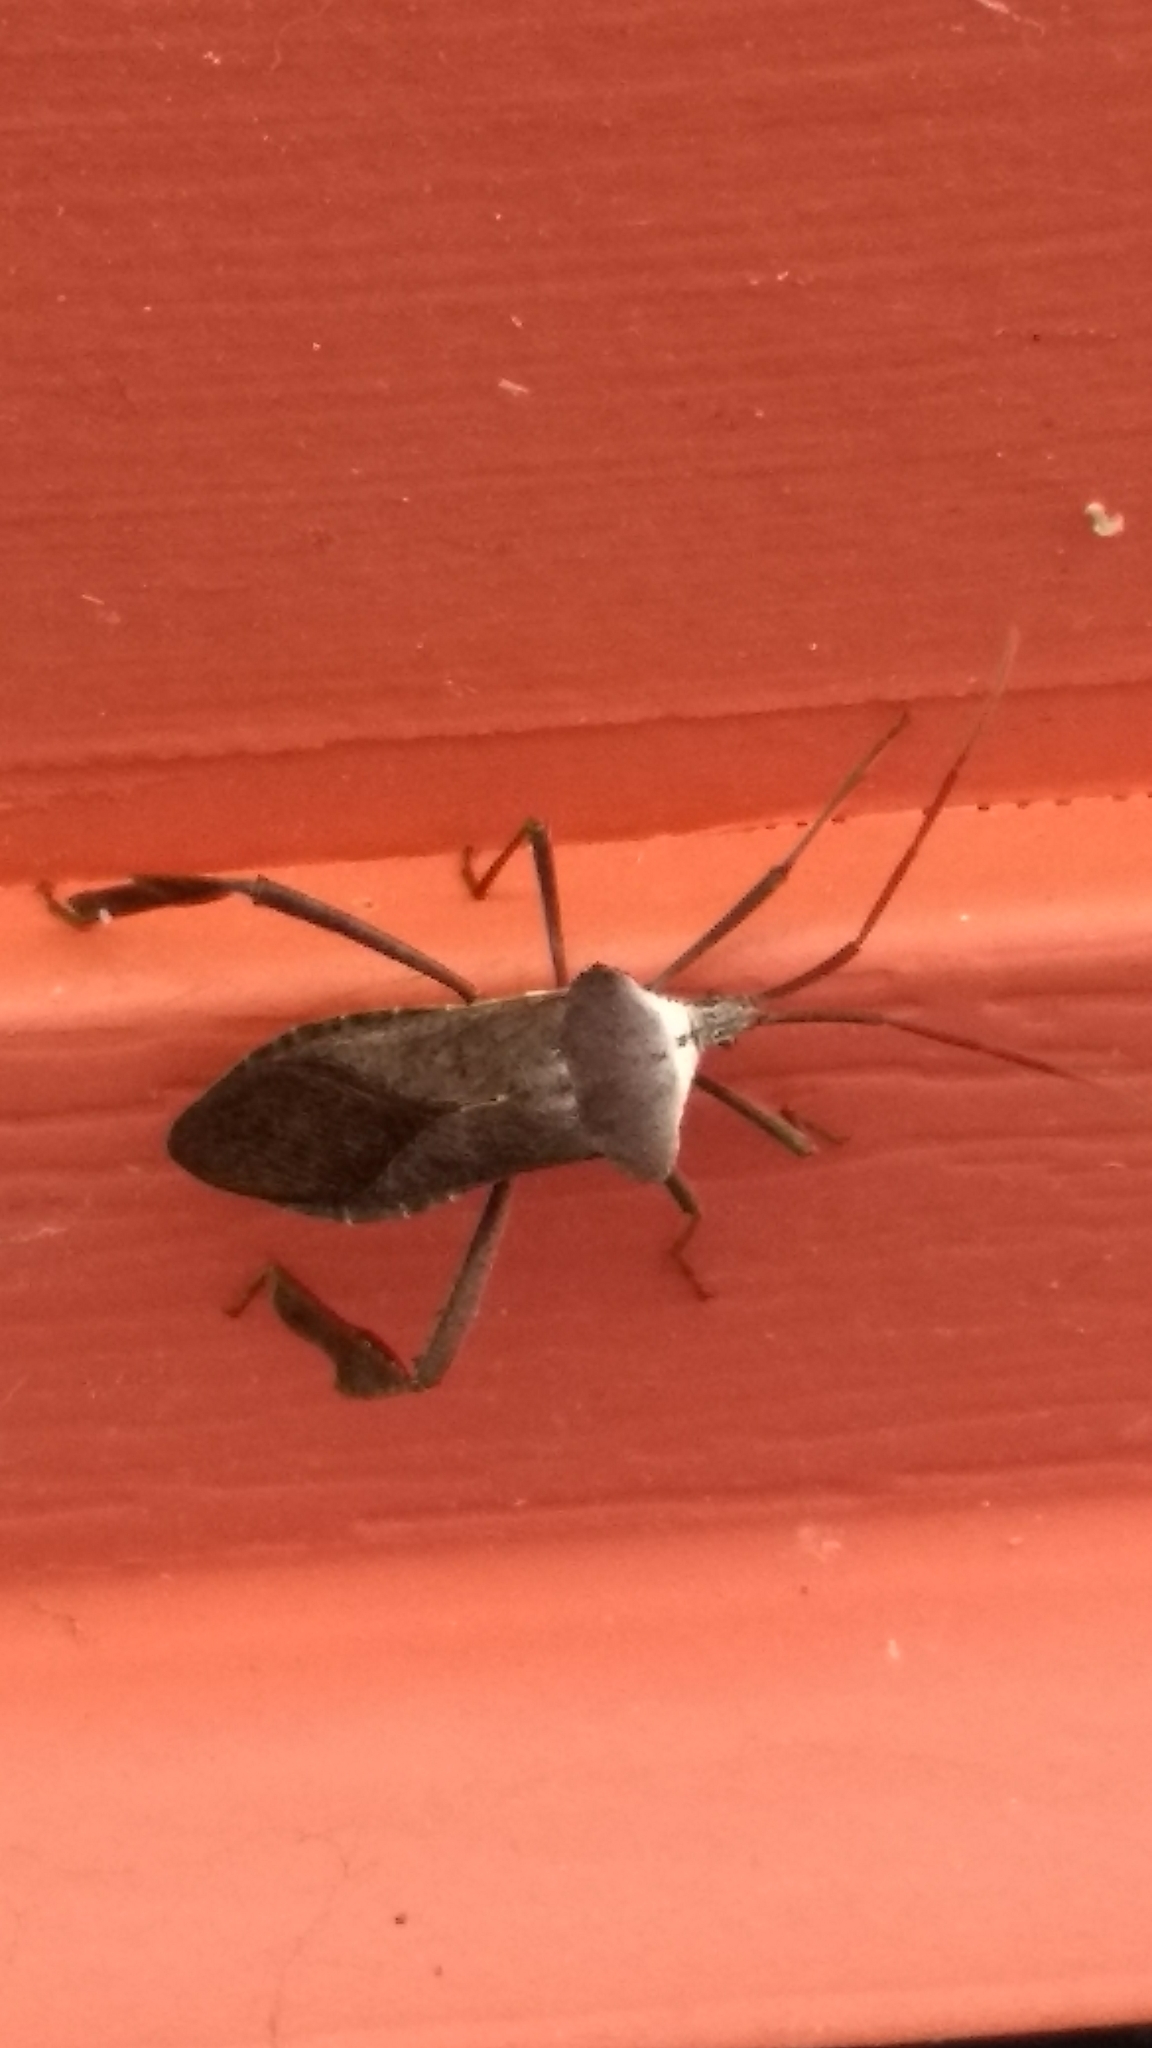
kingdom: Animalia
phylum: Arthropoda
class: Insecta
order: Hemiptera
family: Coreidae
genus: Acanthocephala
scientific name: Acanthocephala declivis
